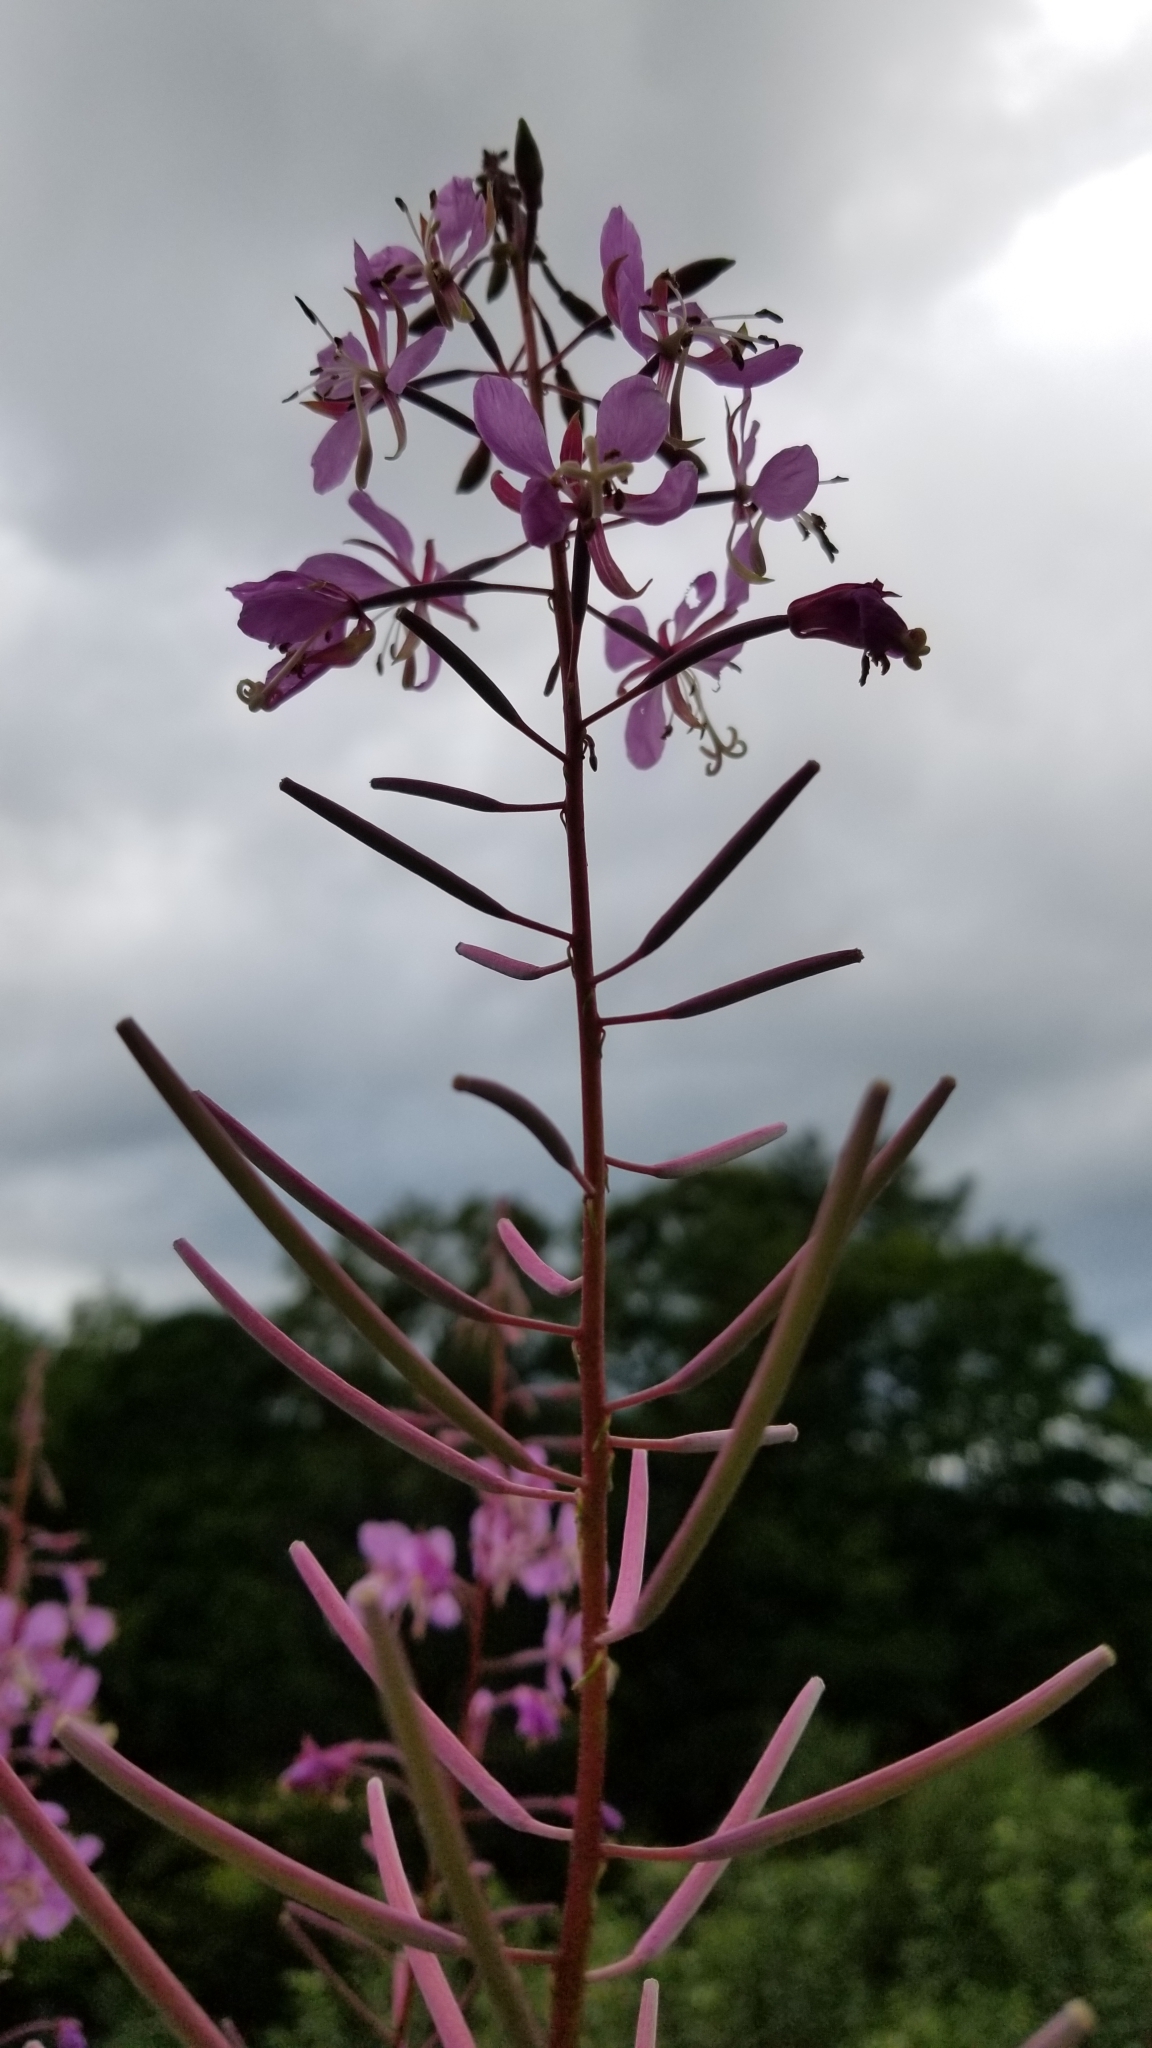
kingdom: Plantae
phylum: Tracheophyta
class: Magnoliopsida
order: Myrtales
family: Onagraceae
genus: Chamaenerion
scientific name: Chamaenerion angustifolium
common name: Fireweed
